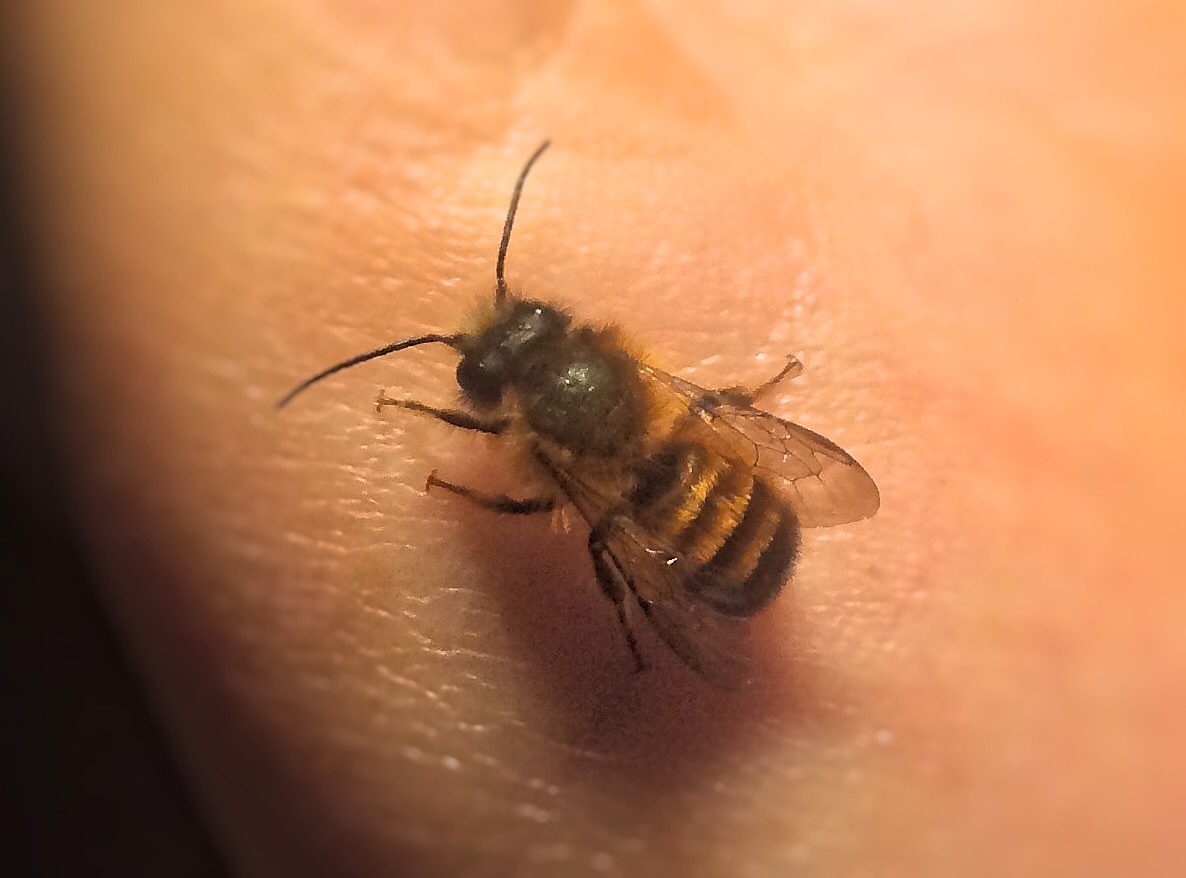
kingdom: Animalia
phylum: Arthropoda
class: Insecta
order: Hymenoptera
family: Megachilidae
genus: Osmia
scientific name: Osmia bicornis
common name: Red mason bee
